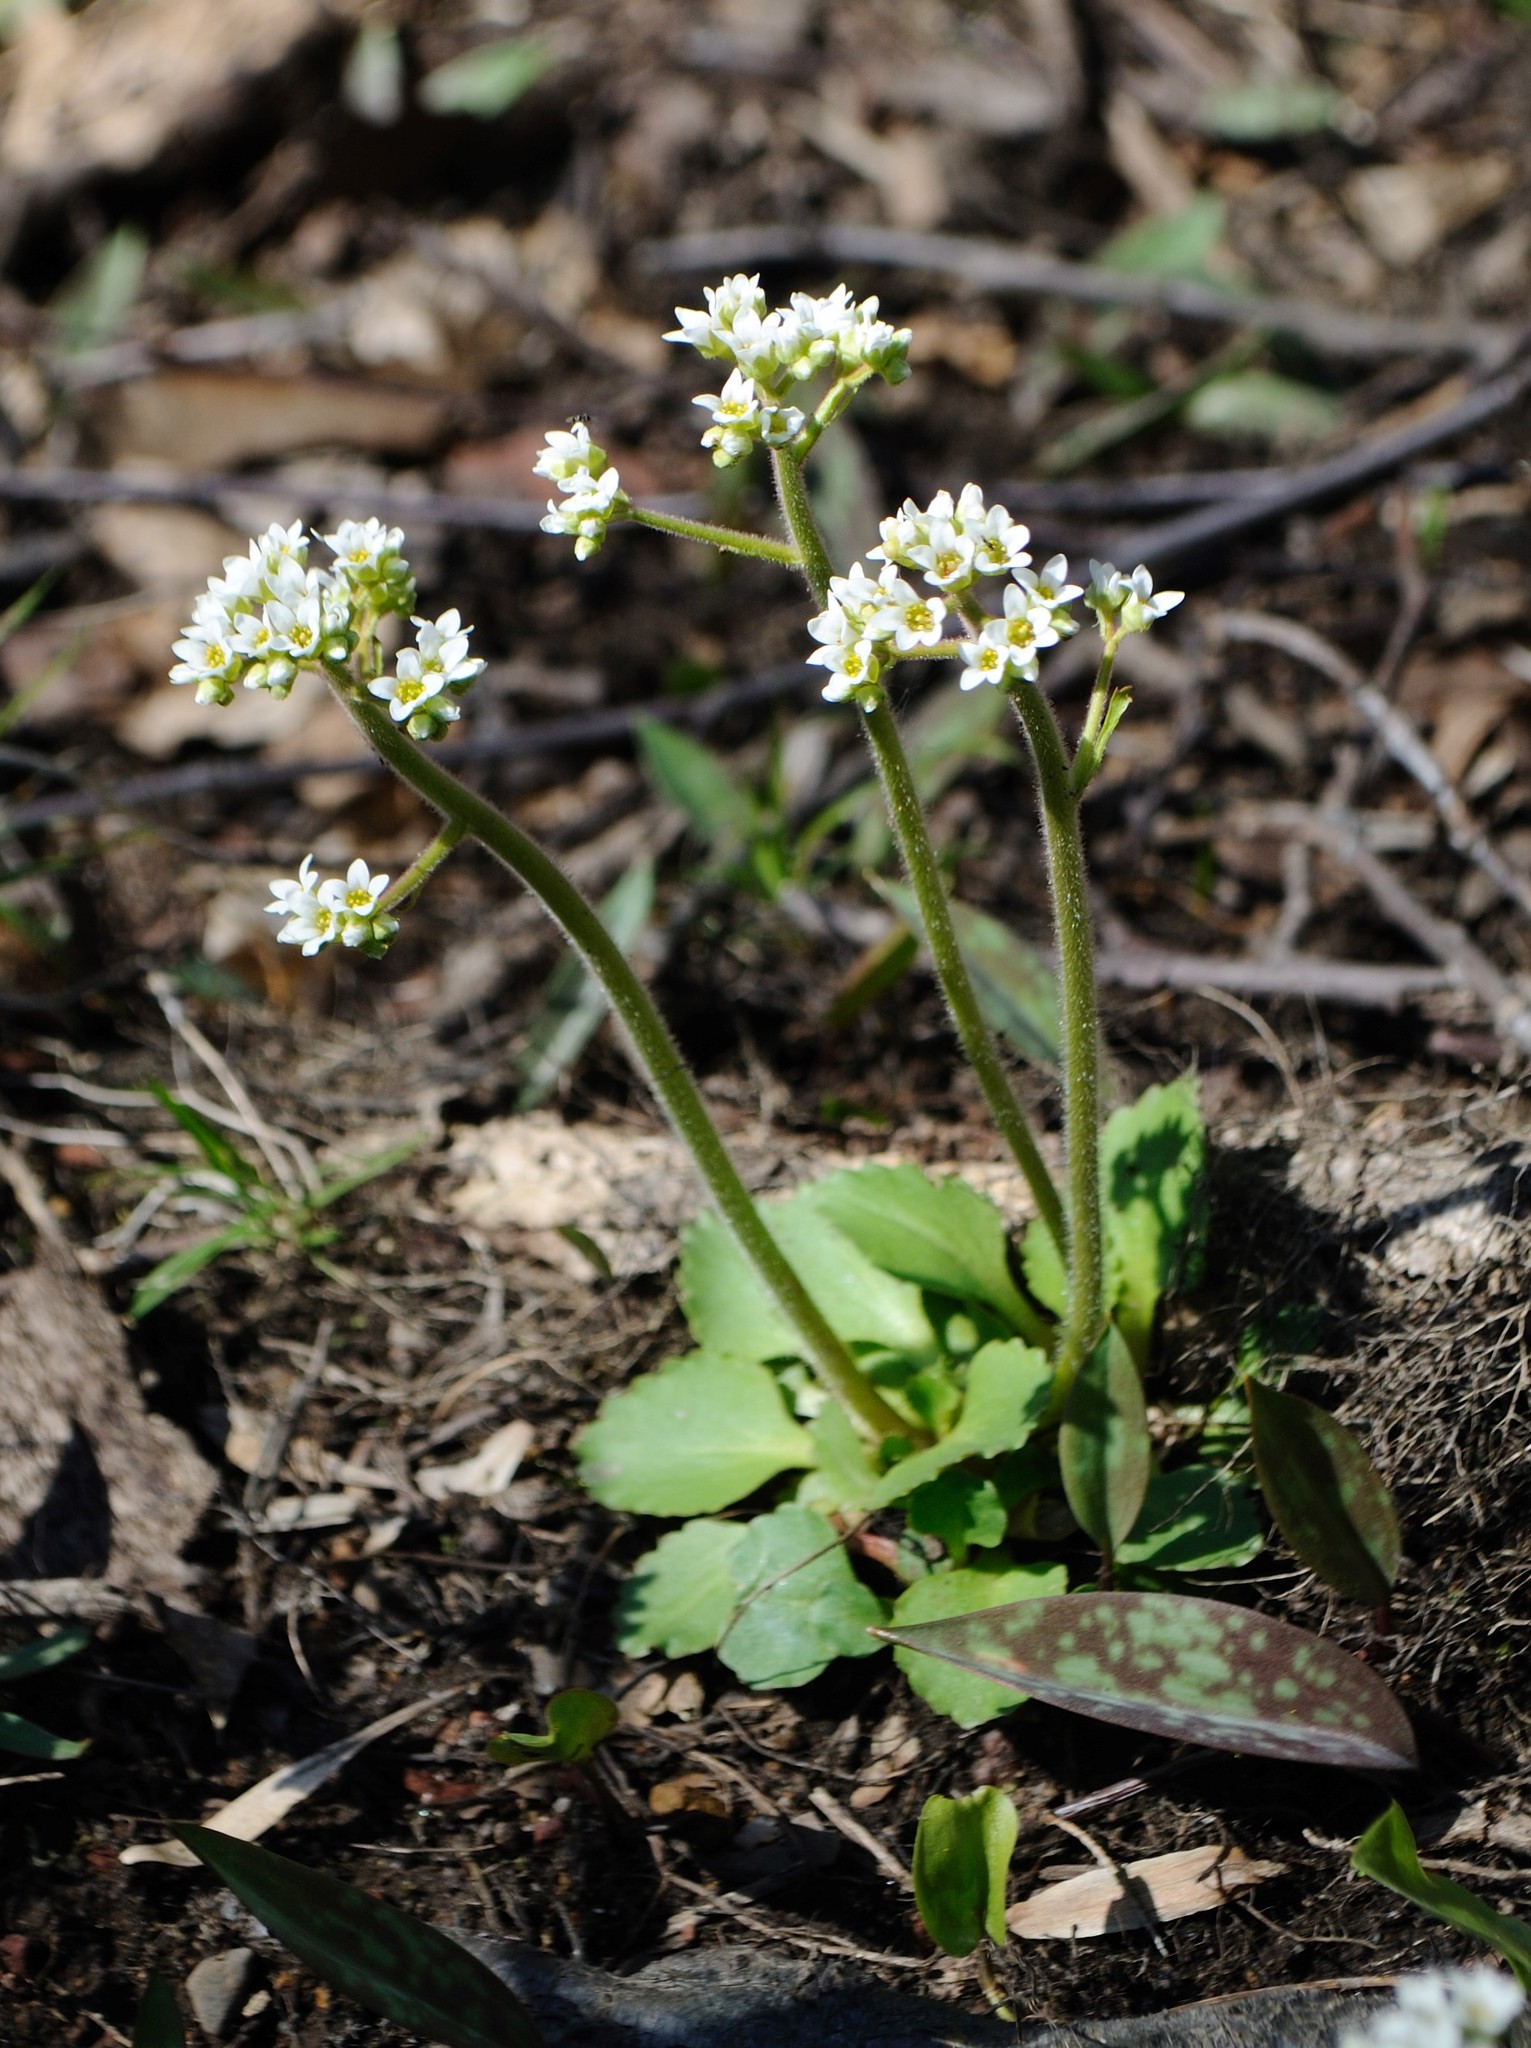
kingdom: Plantae
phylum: Tracheophyta
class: Magnoliopsida
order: Saxifragales
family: Saxifragaceae
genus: Micranthes
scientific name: Micranthes virginiensis
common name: Early saxifrage
